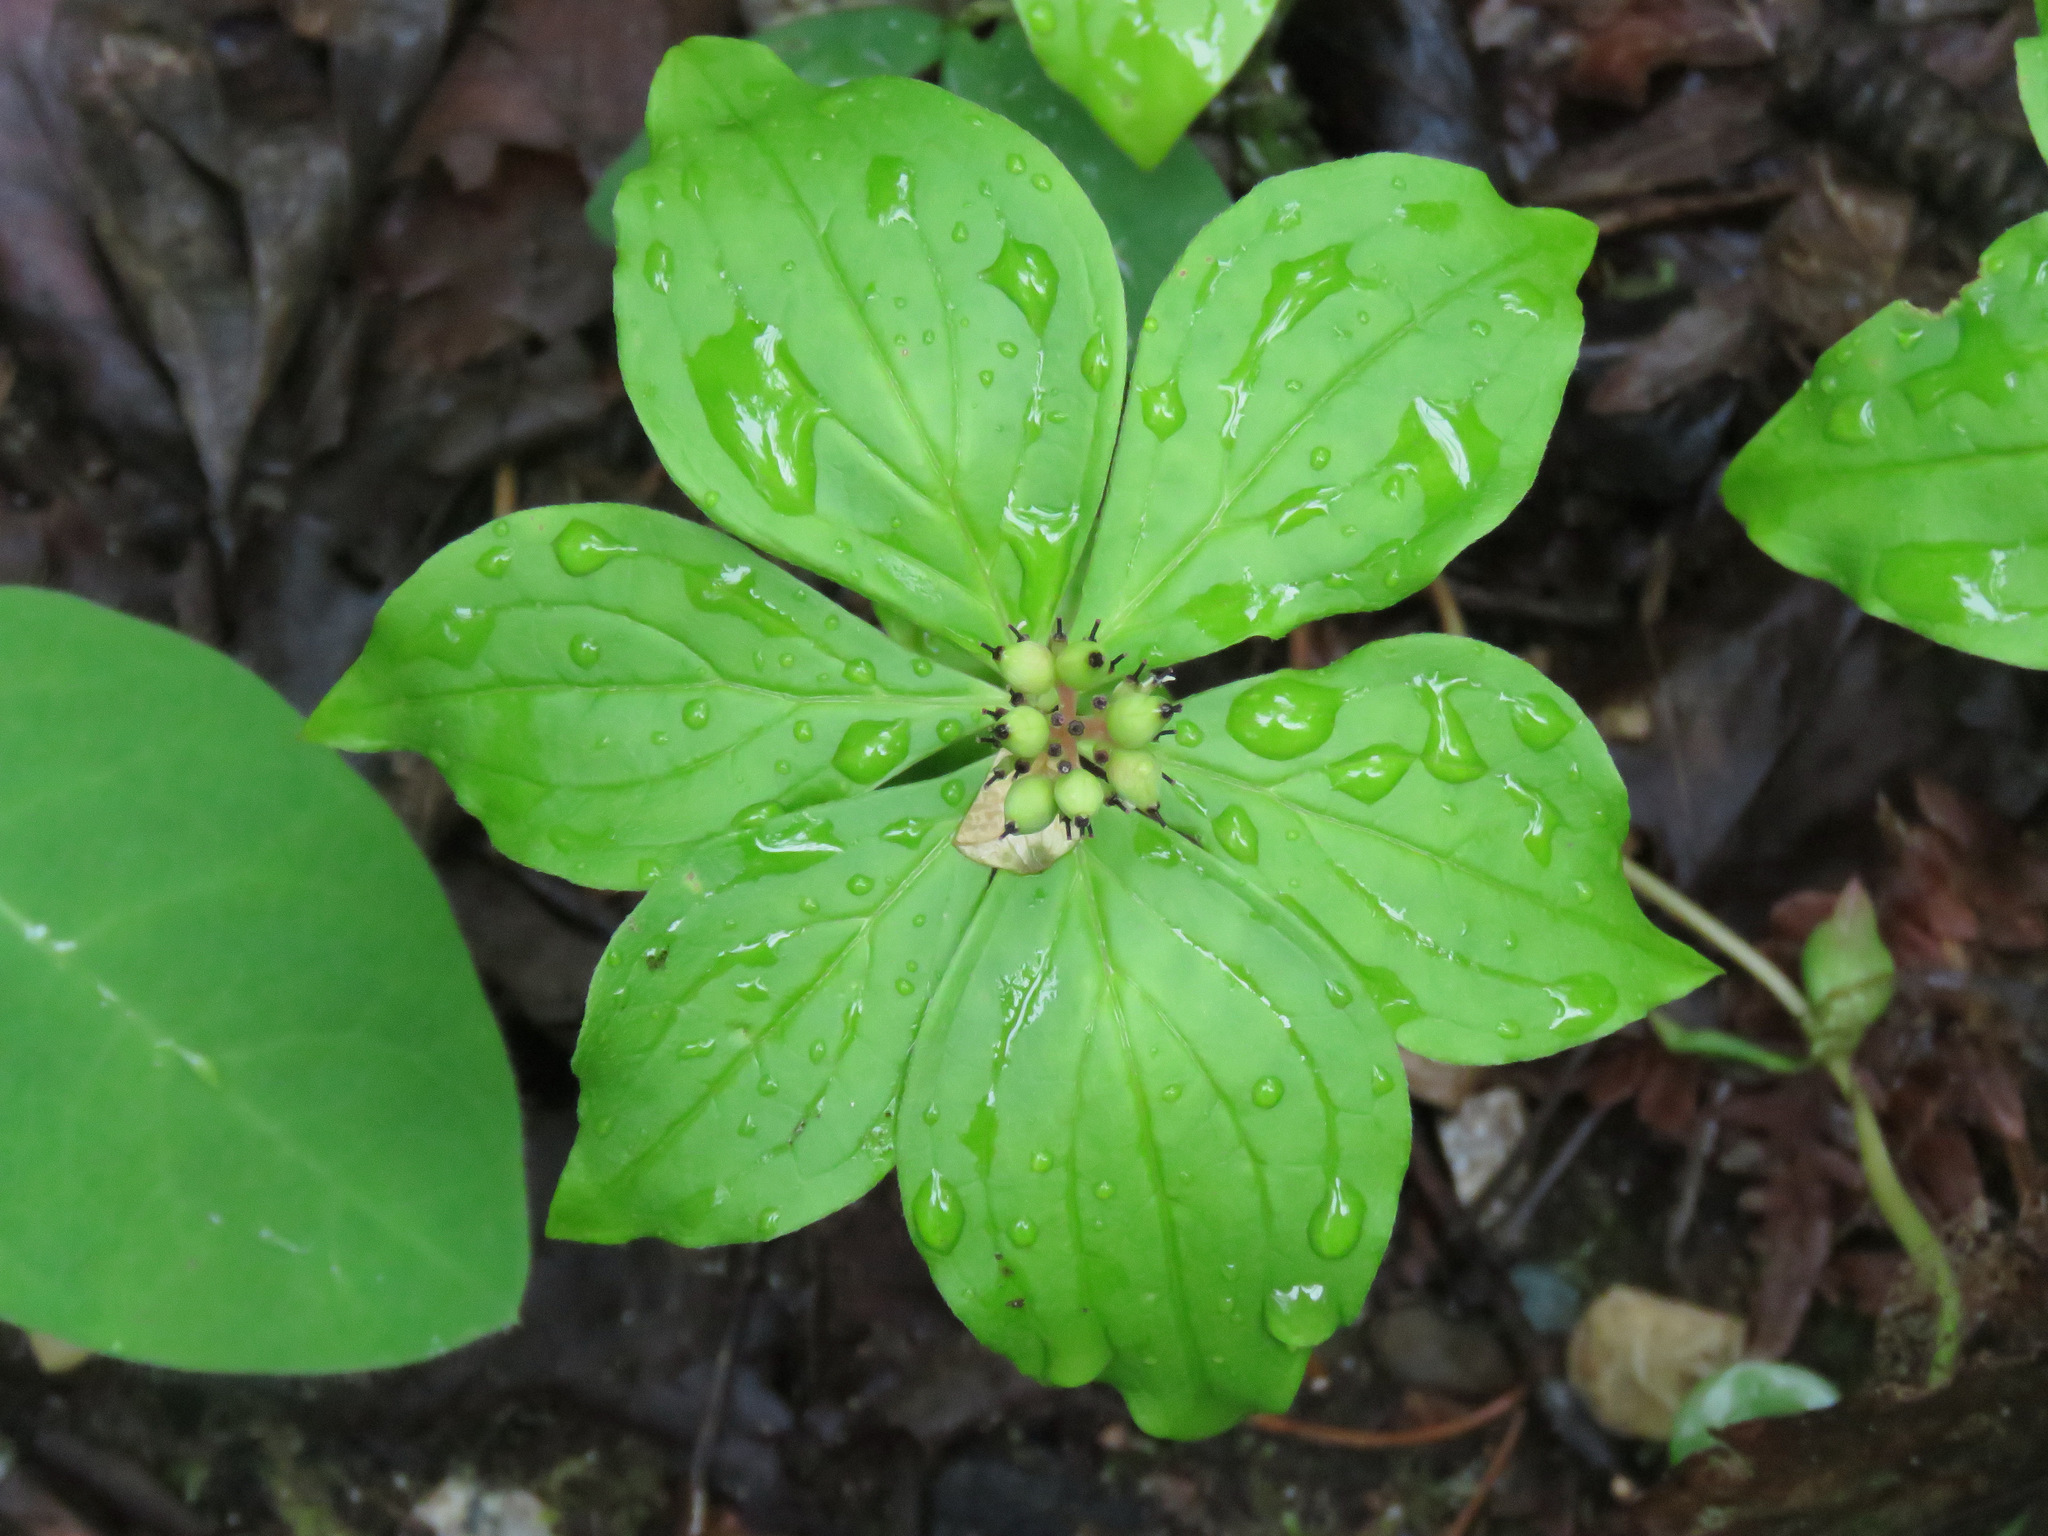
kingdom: Plantae
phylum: Tracheophyta
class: Magnoliopsida
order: Cornales
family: Cornaceae
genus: Cornus
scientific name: Cornus unalaschkensis
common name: Alaska bunchberry
